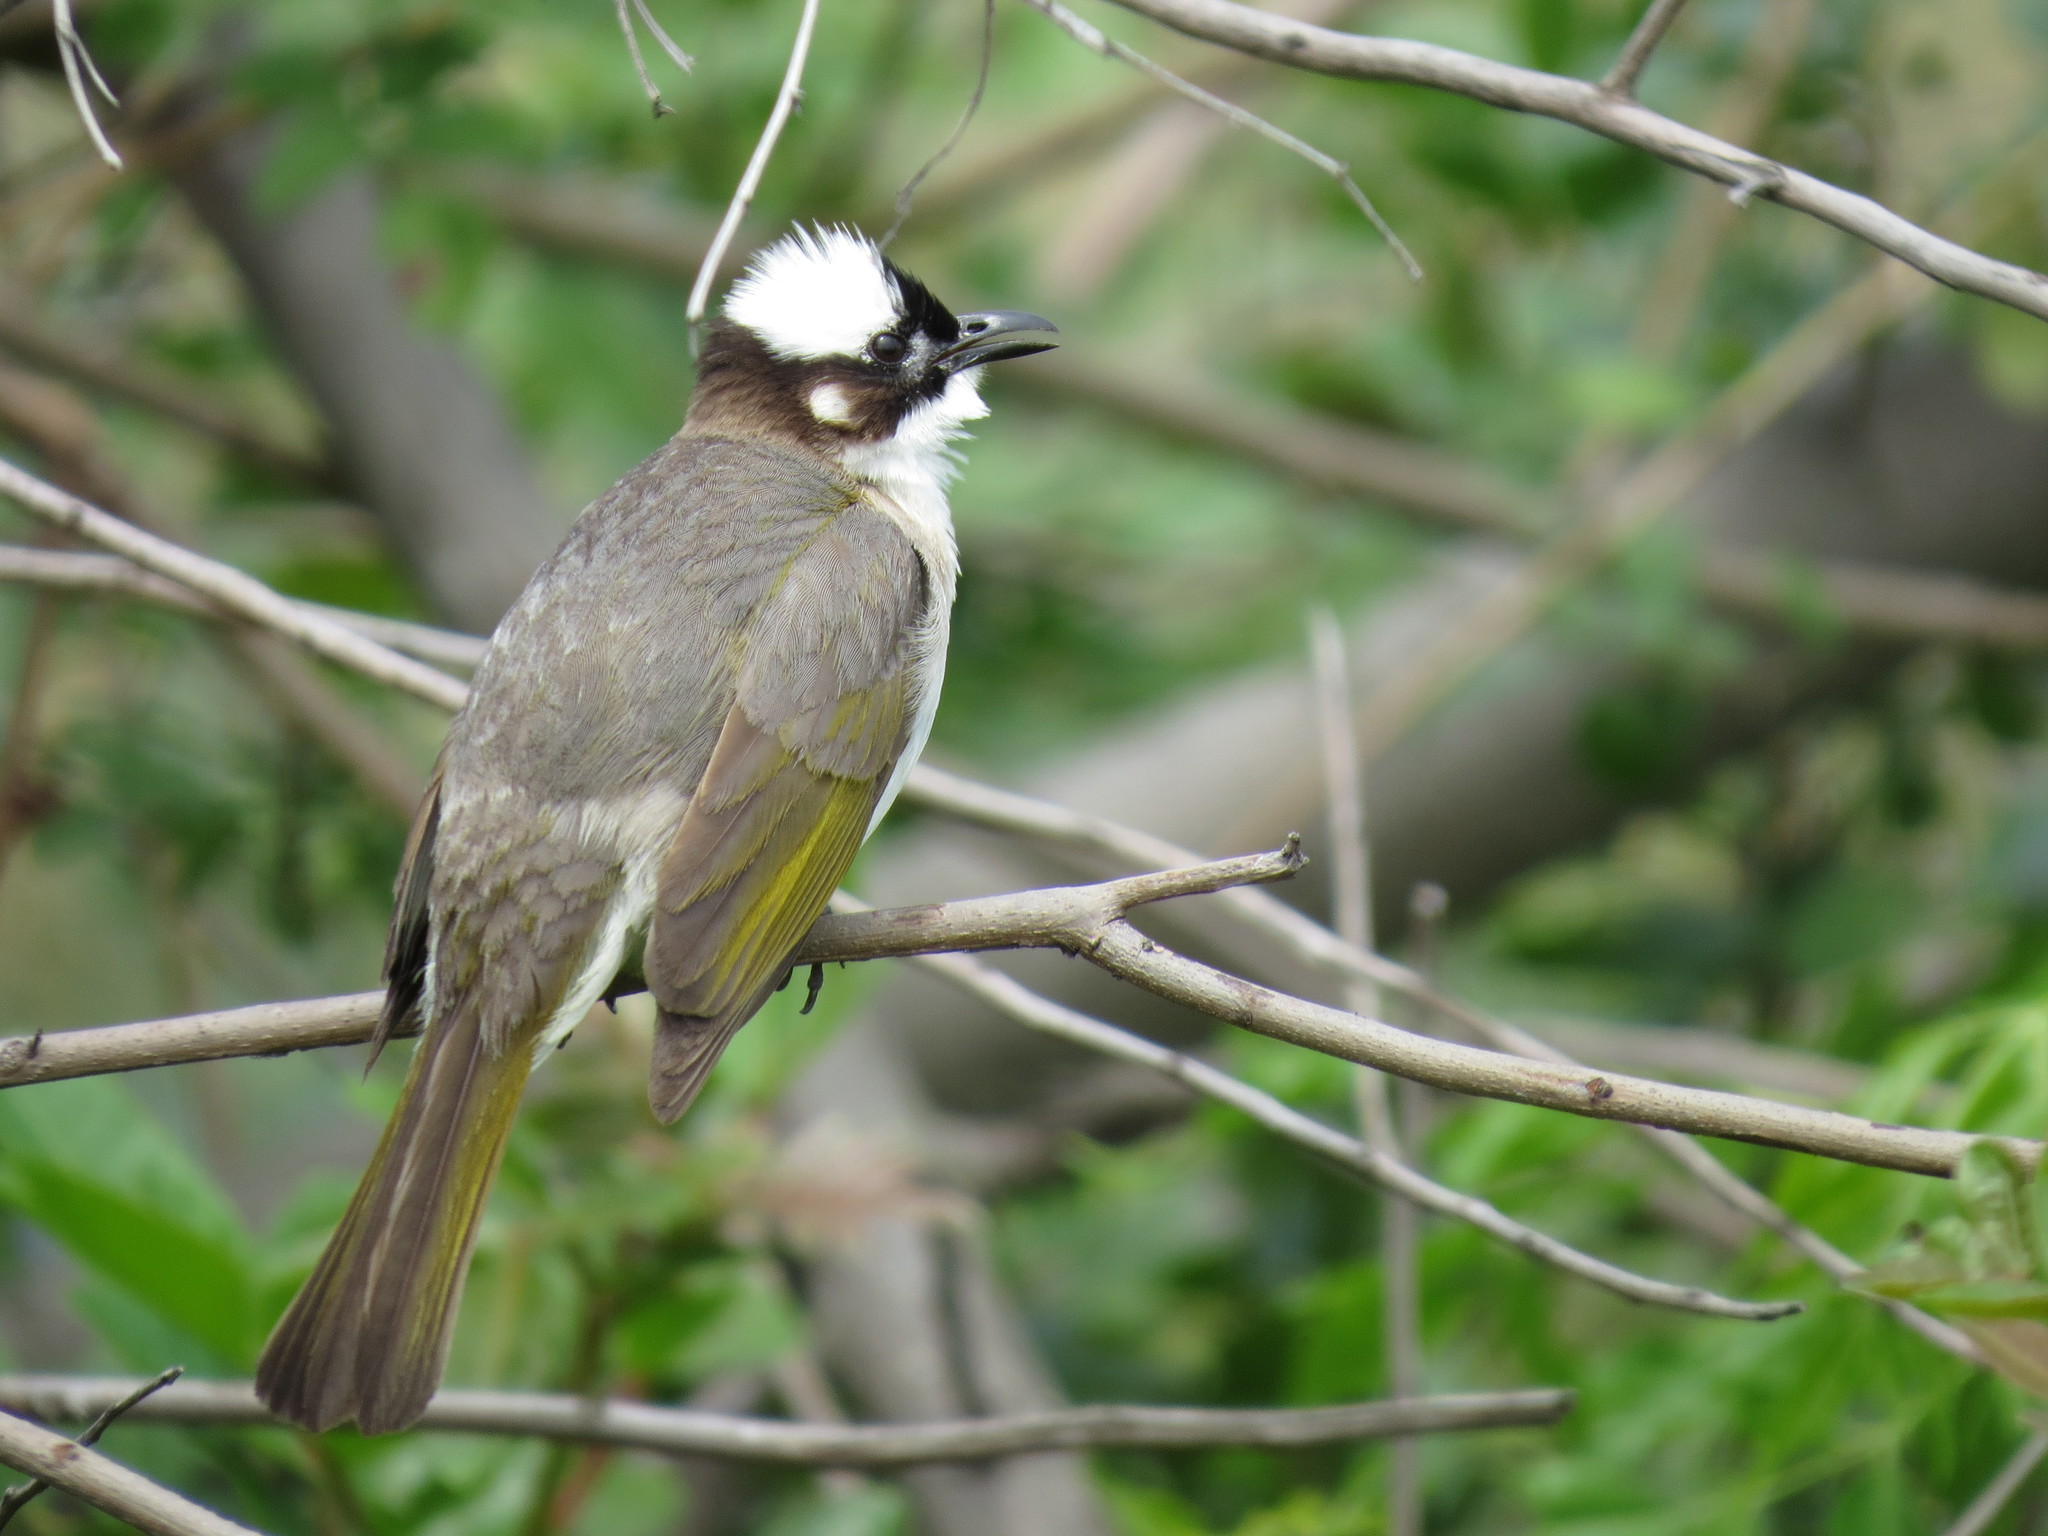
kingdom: Animalia
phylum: Chordata
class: Aves
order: Passeriformes
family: Pycnonotidae
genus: Pycnonotus
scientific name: Pycnonotus sinensis
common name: Light-vented bulbul
